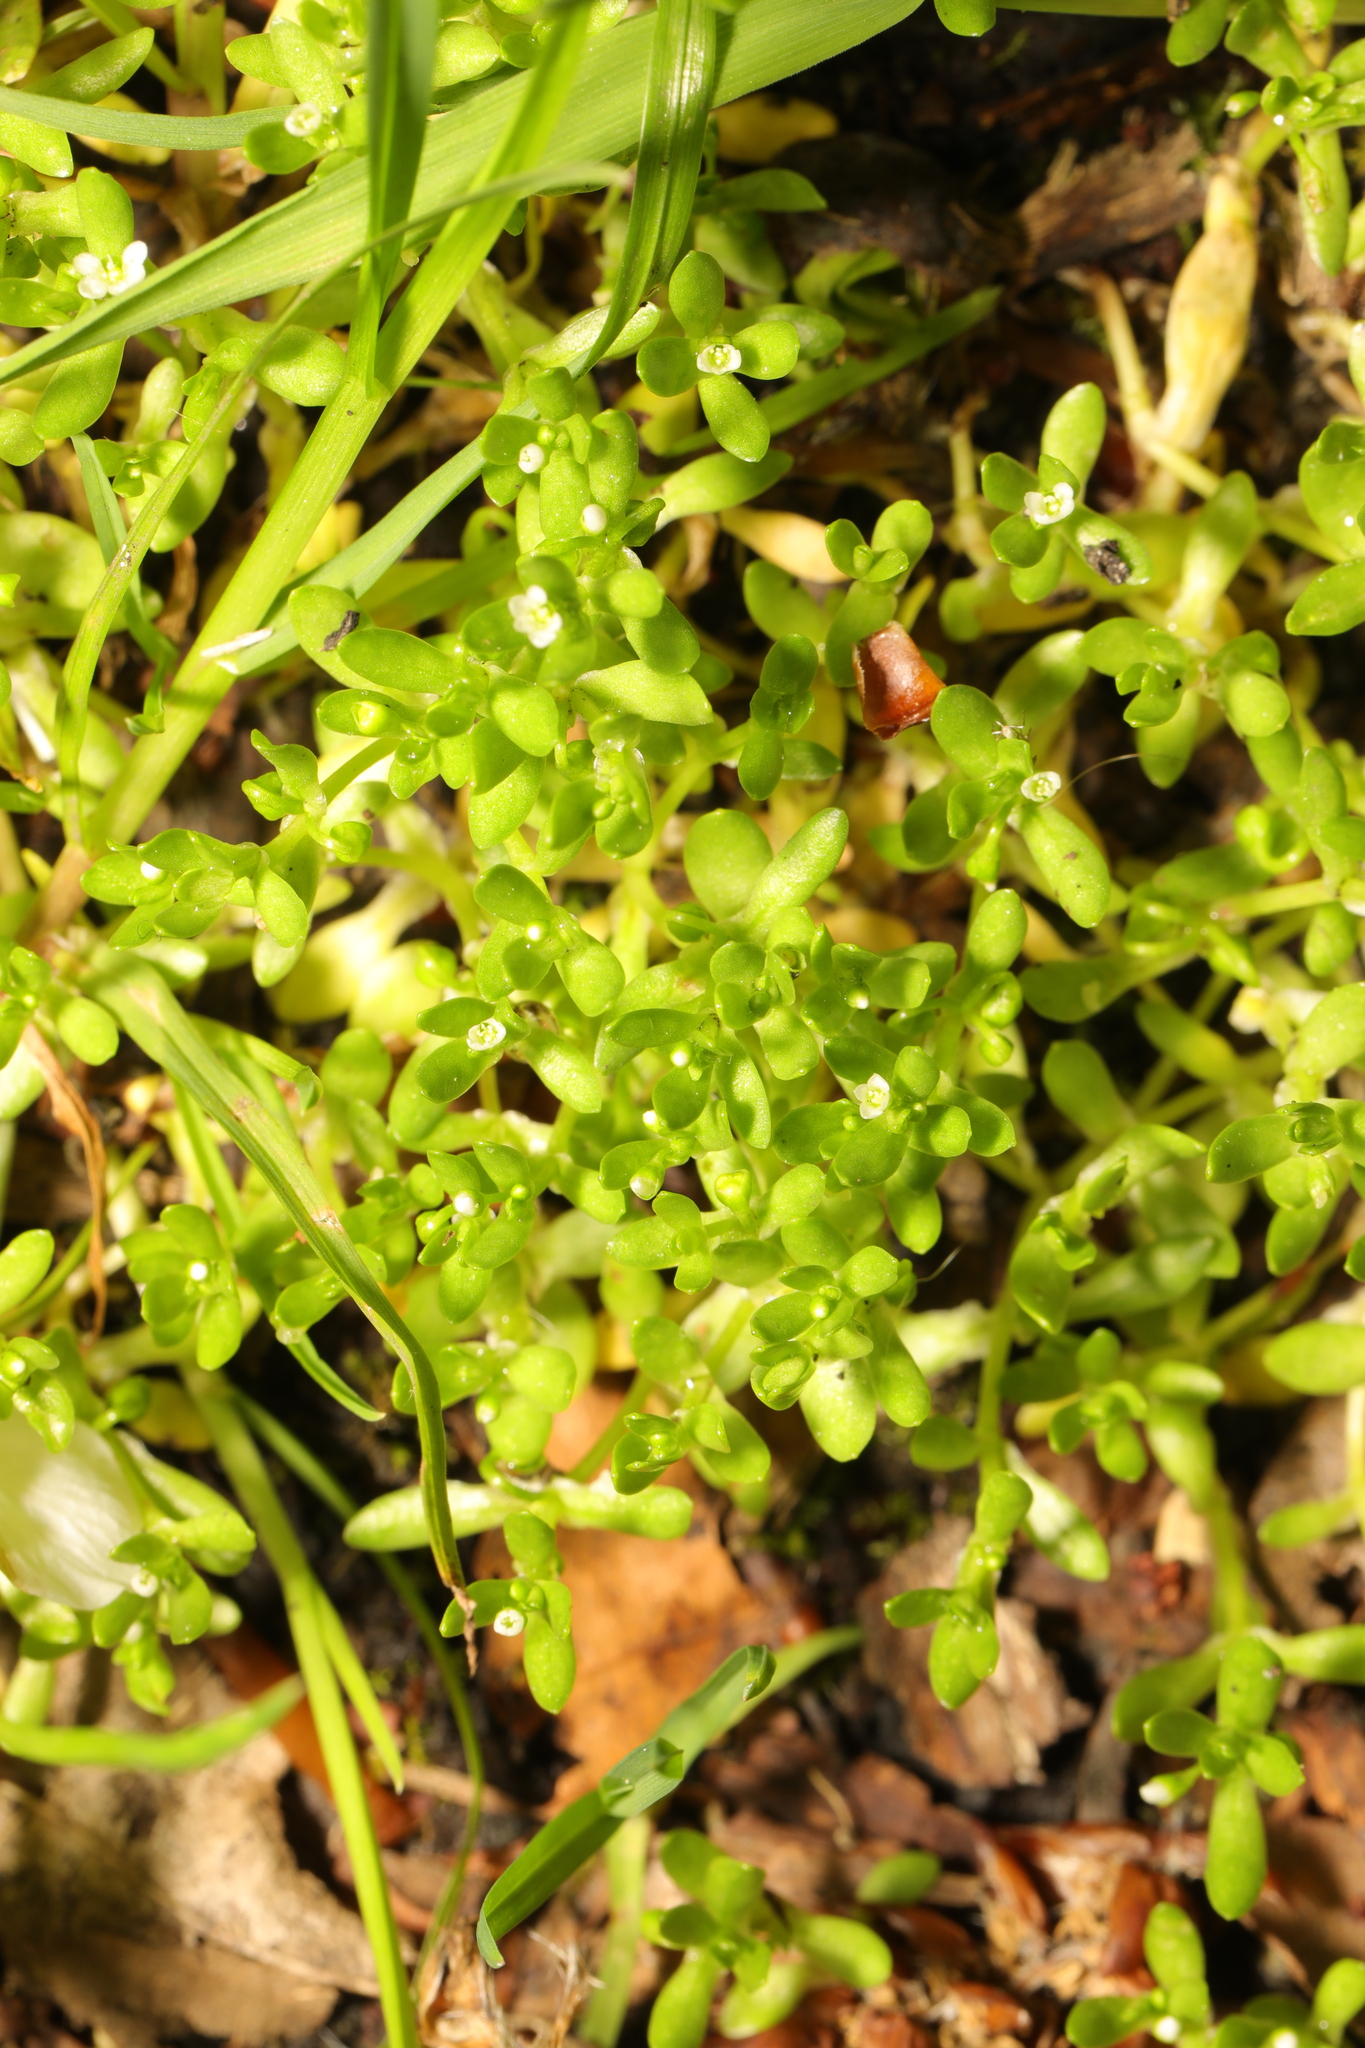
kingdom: Plantae
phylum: Tracheophyta
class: Magnoliopsida
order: Caryophyllales
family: Montiaceae
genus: Montia
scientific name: Montia fontana
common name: Blinks
